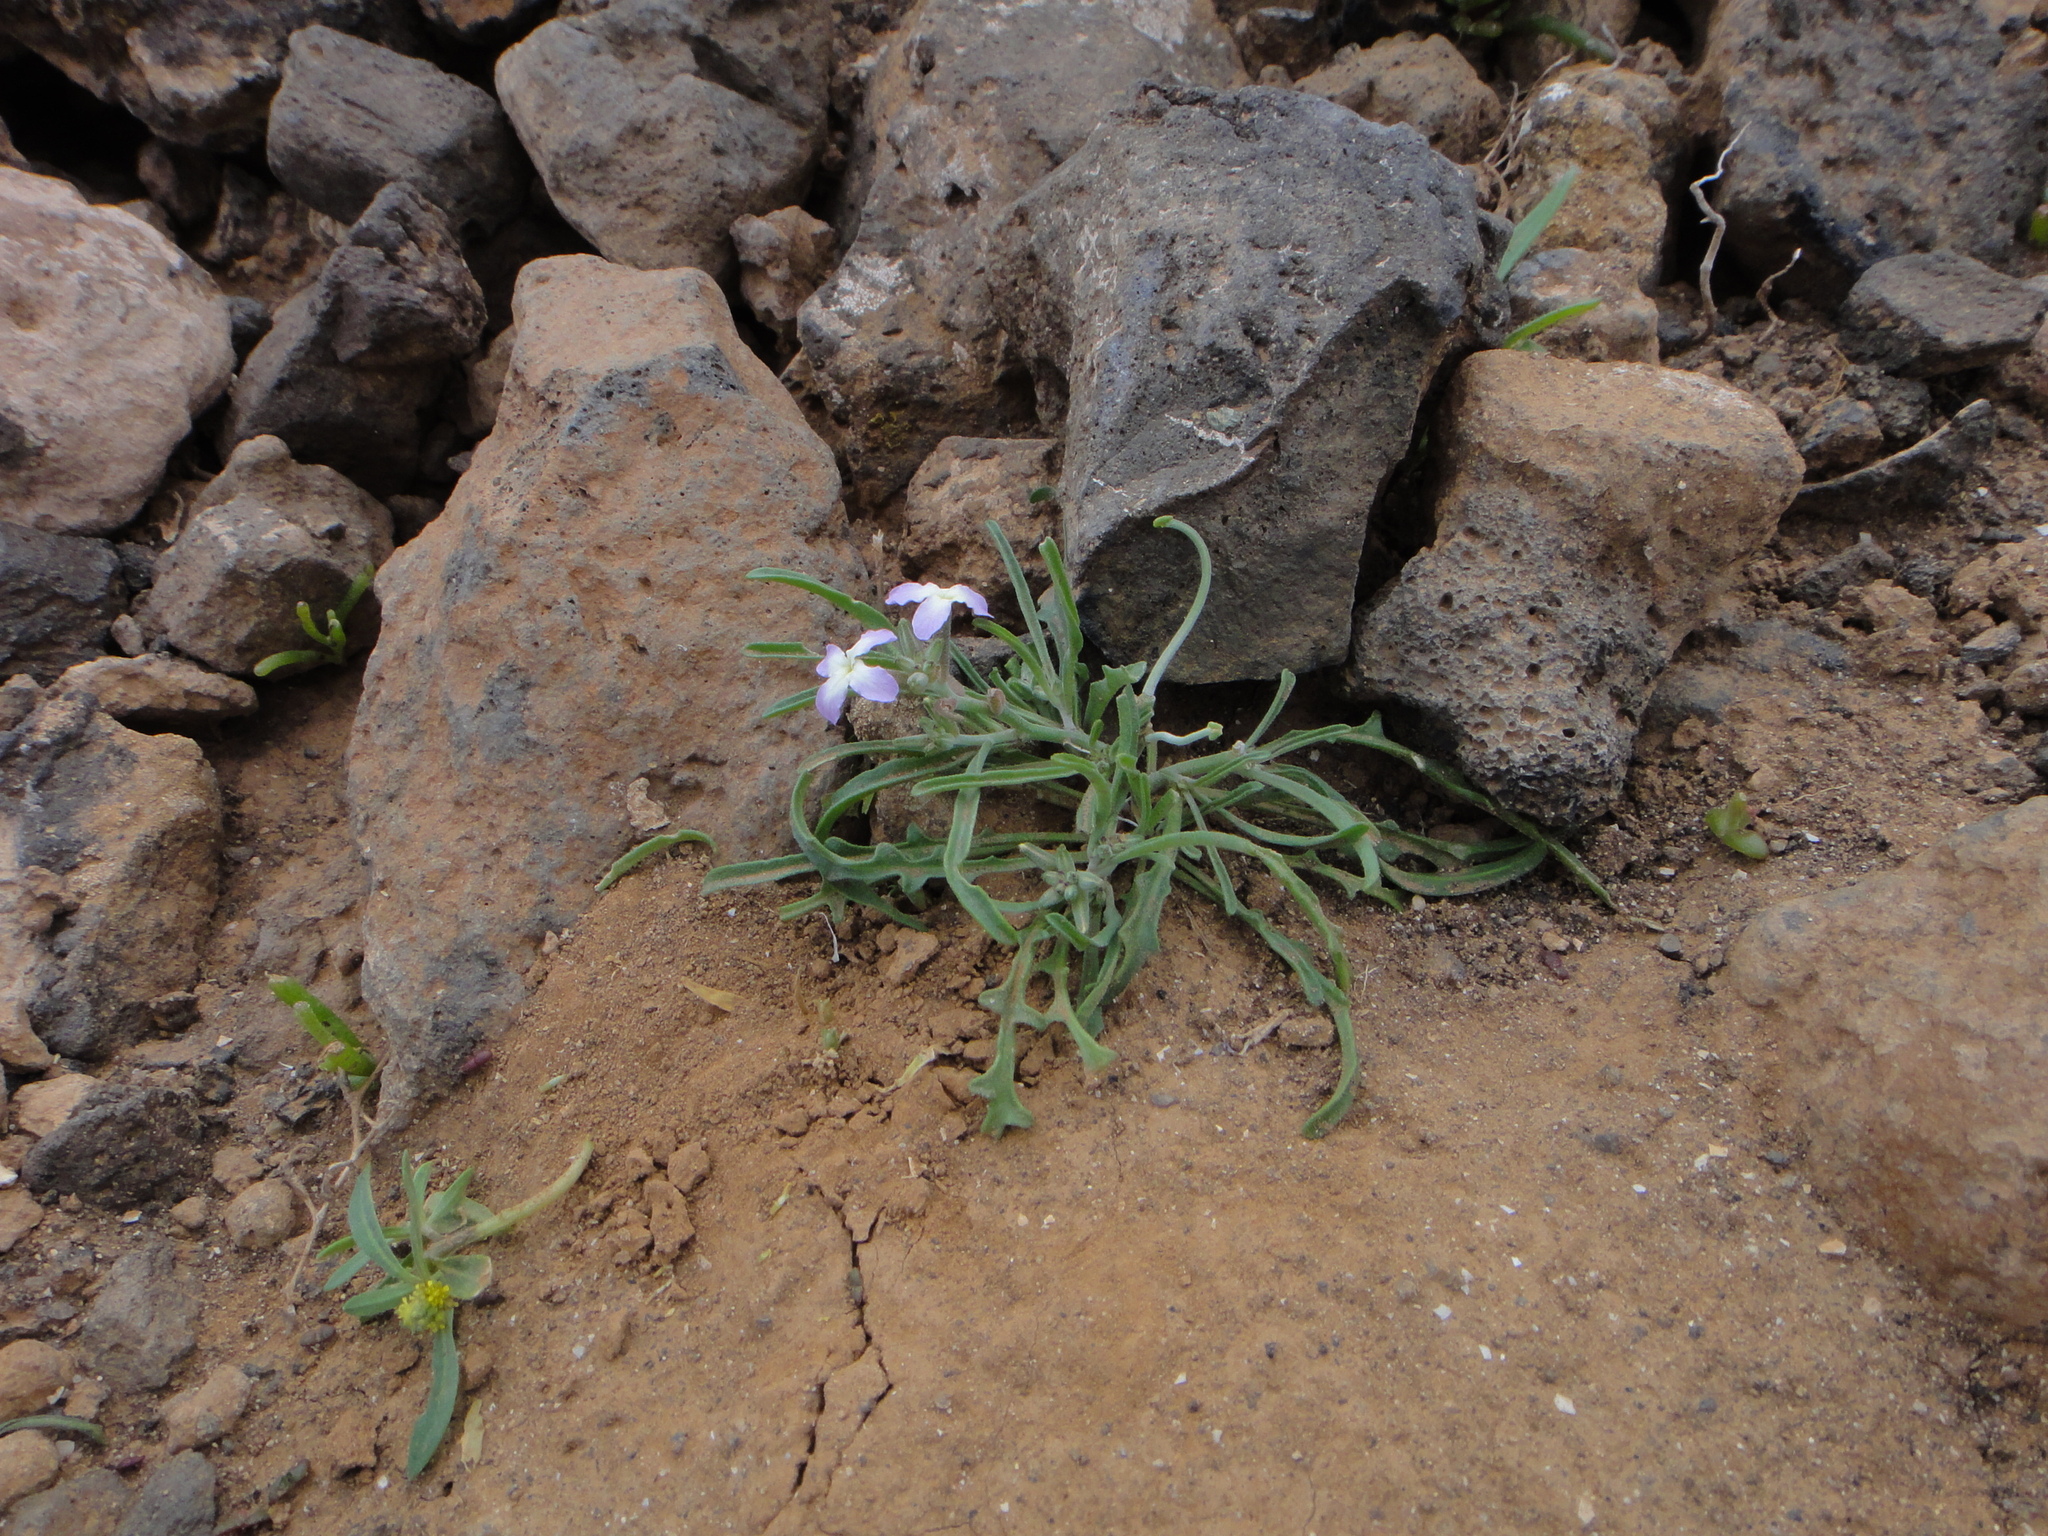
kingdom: Plantae
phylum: Tracheophyta
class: Magnoliopsida
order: Brassicales
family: Brassicaceae
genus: Matthiola
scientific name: Matthiola bolleana
